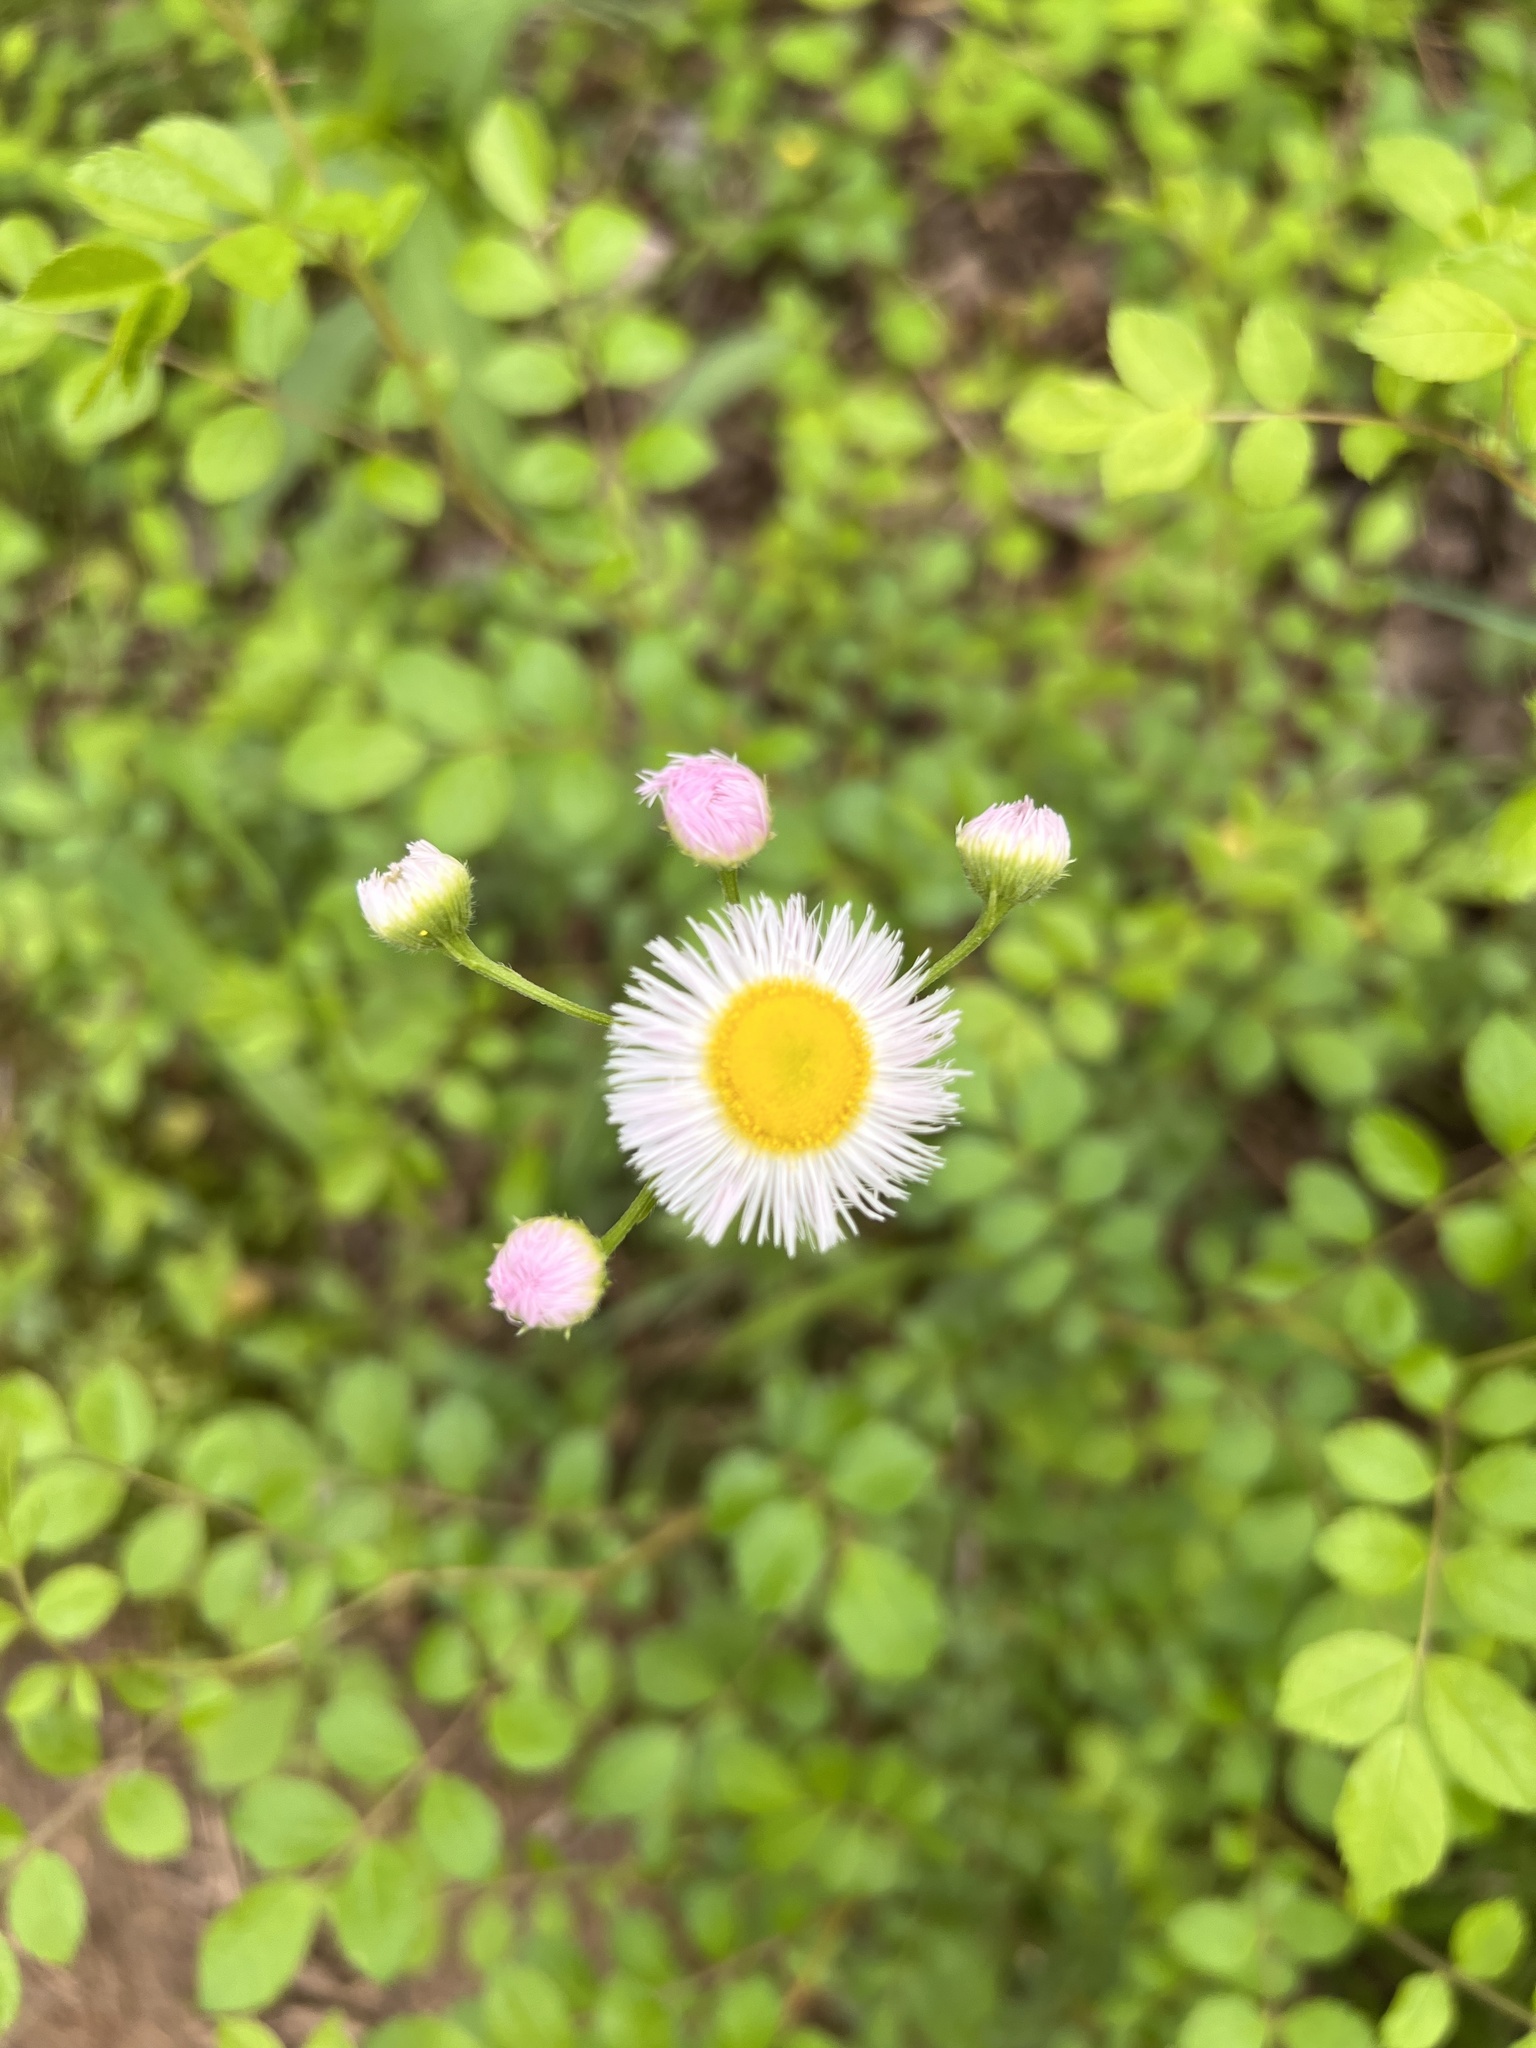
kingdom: Plantae
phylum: Tracheophyta
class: Magnoliopsida
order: Asterales
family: Asteraceae
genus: Erigeron
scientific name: Erigeron philadelphicus
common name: Robin's-plantain
